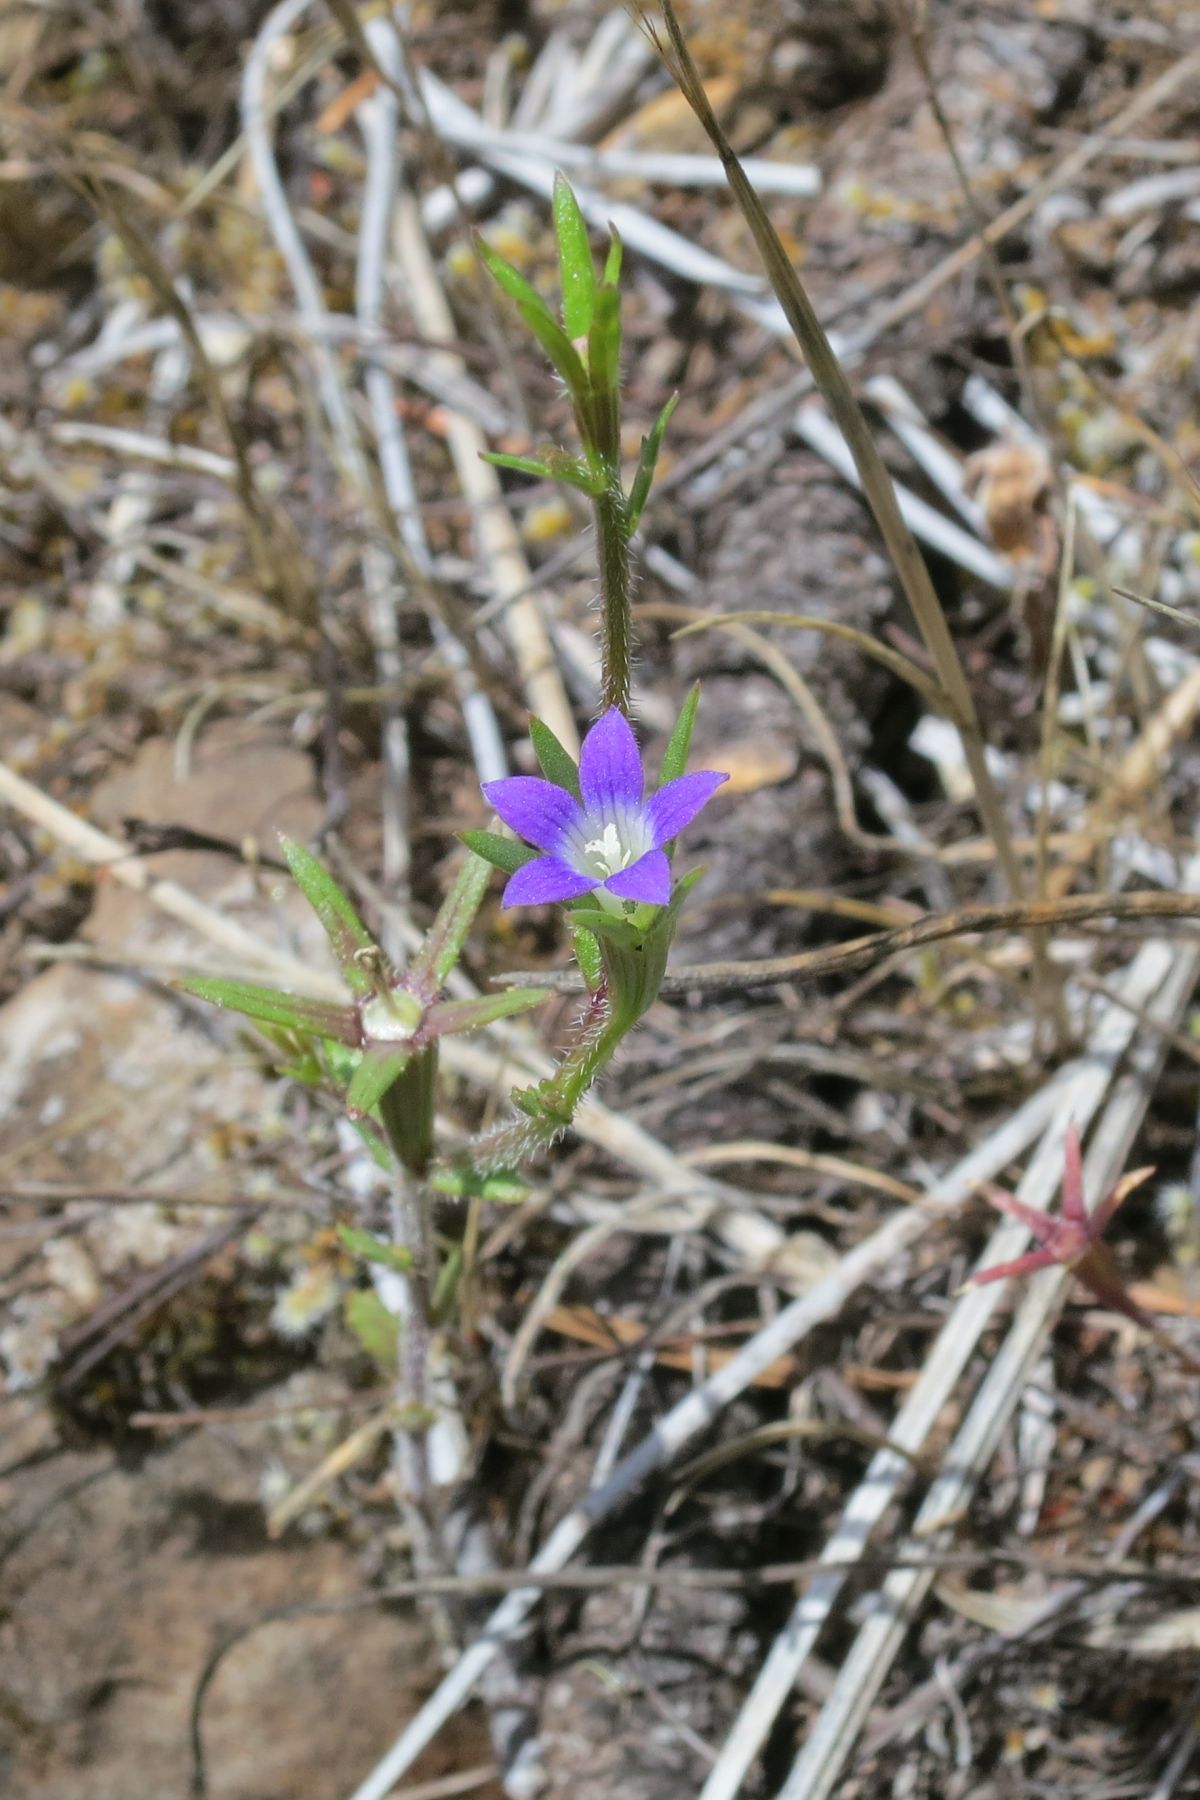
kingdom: Plantae
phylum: Tracheophyta
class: Magnoliopsida
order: Asterales
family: Campanulaceae
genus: Githopsis
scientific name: Githopsis specularioides
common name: Common bluecup
